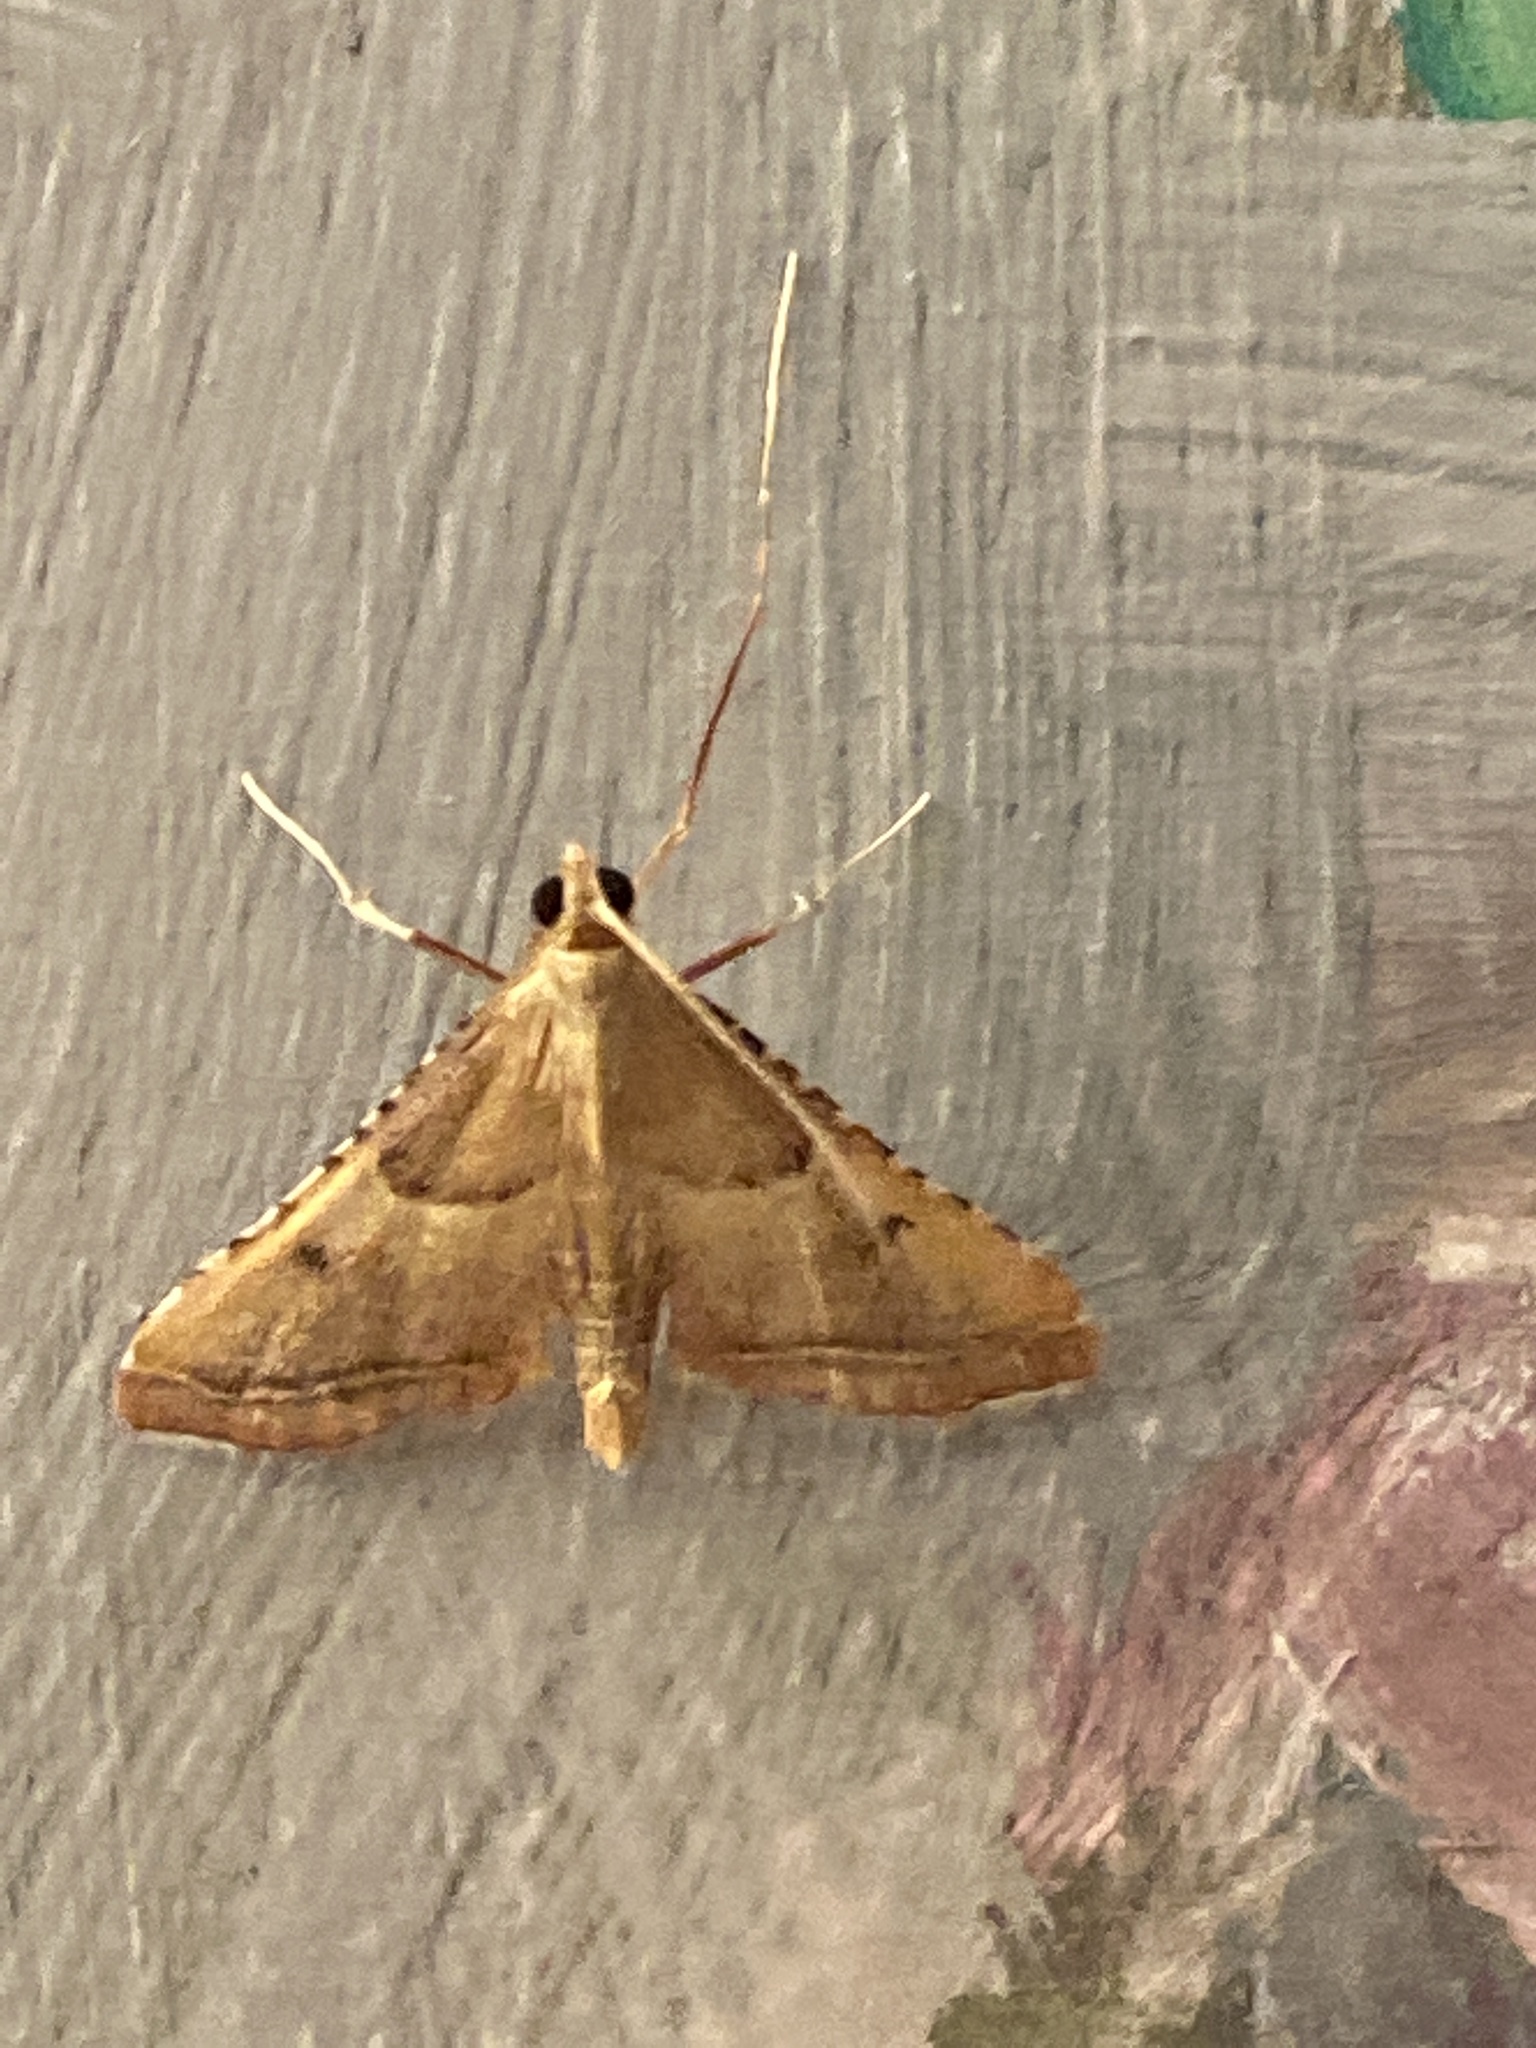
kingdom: Animalia
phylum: Arthropoda
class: Insecta
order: Lepidoptera
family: Pyralidae
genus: Endotricha
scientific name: Endotricha flammealis
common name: Rosy tabby
